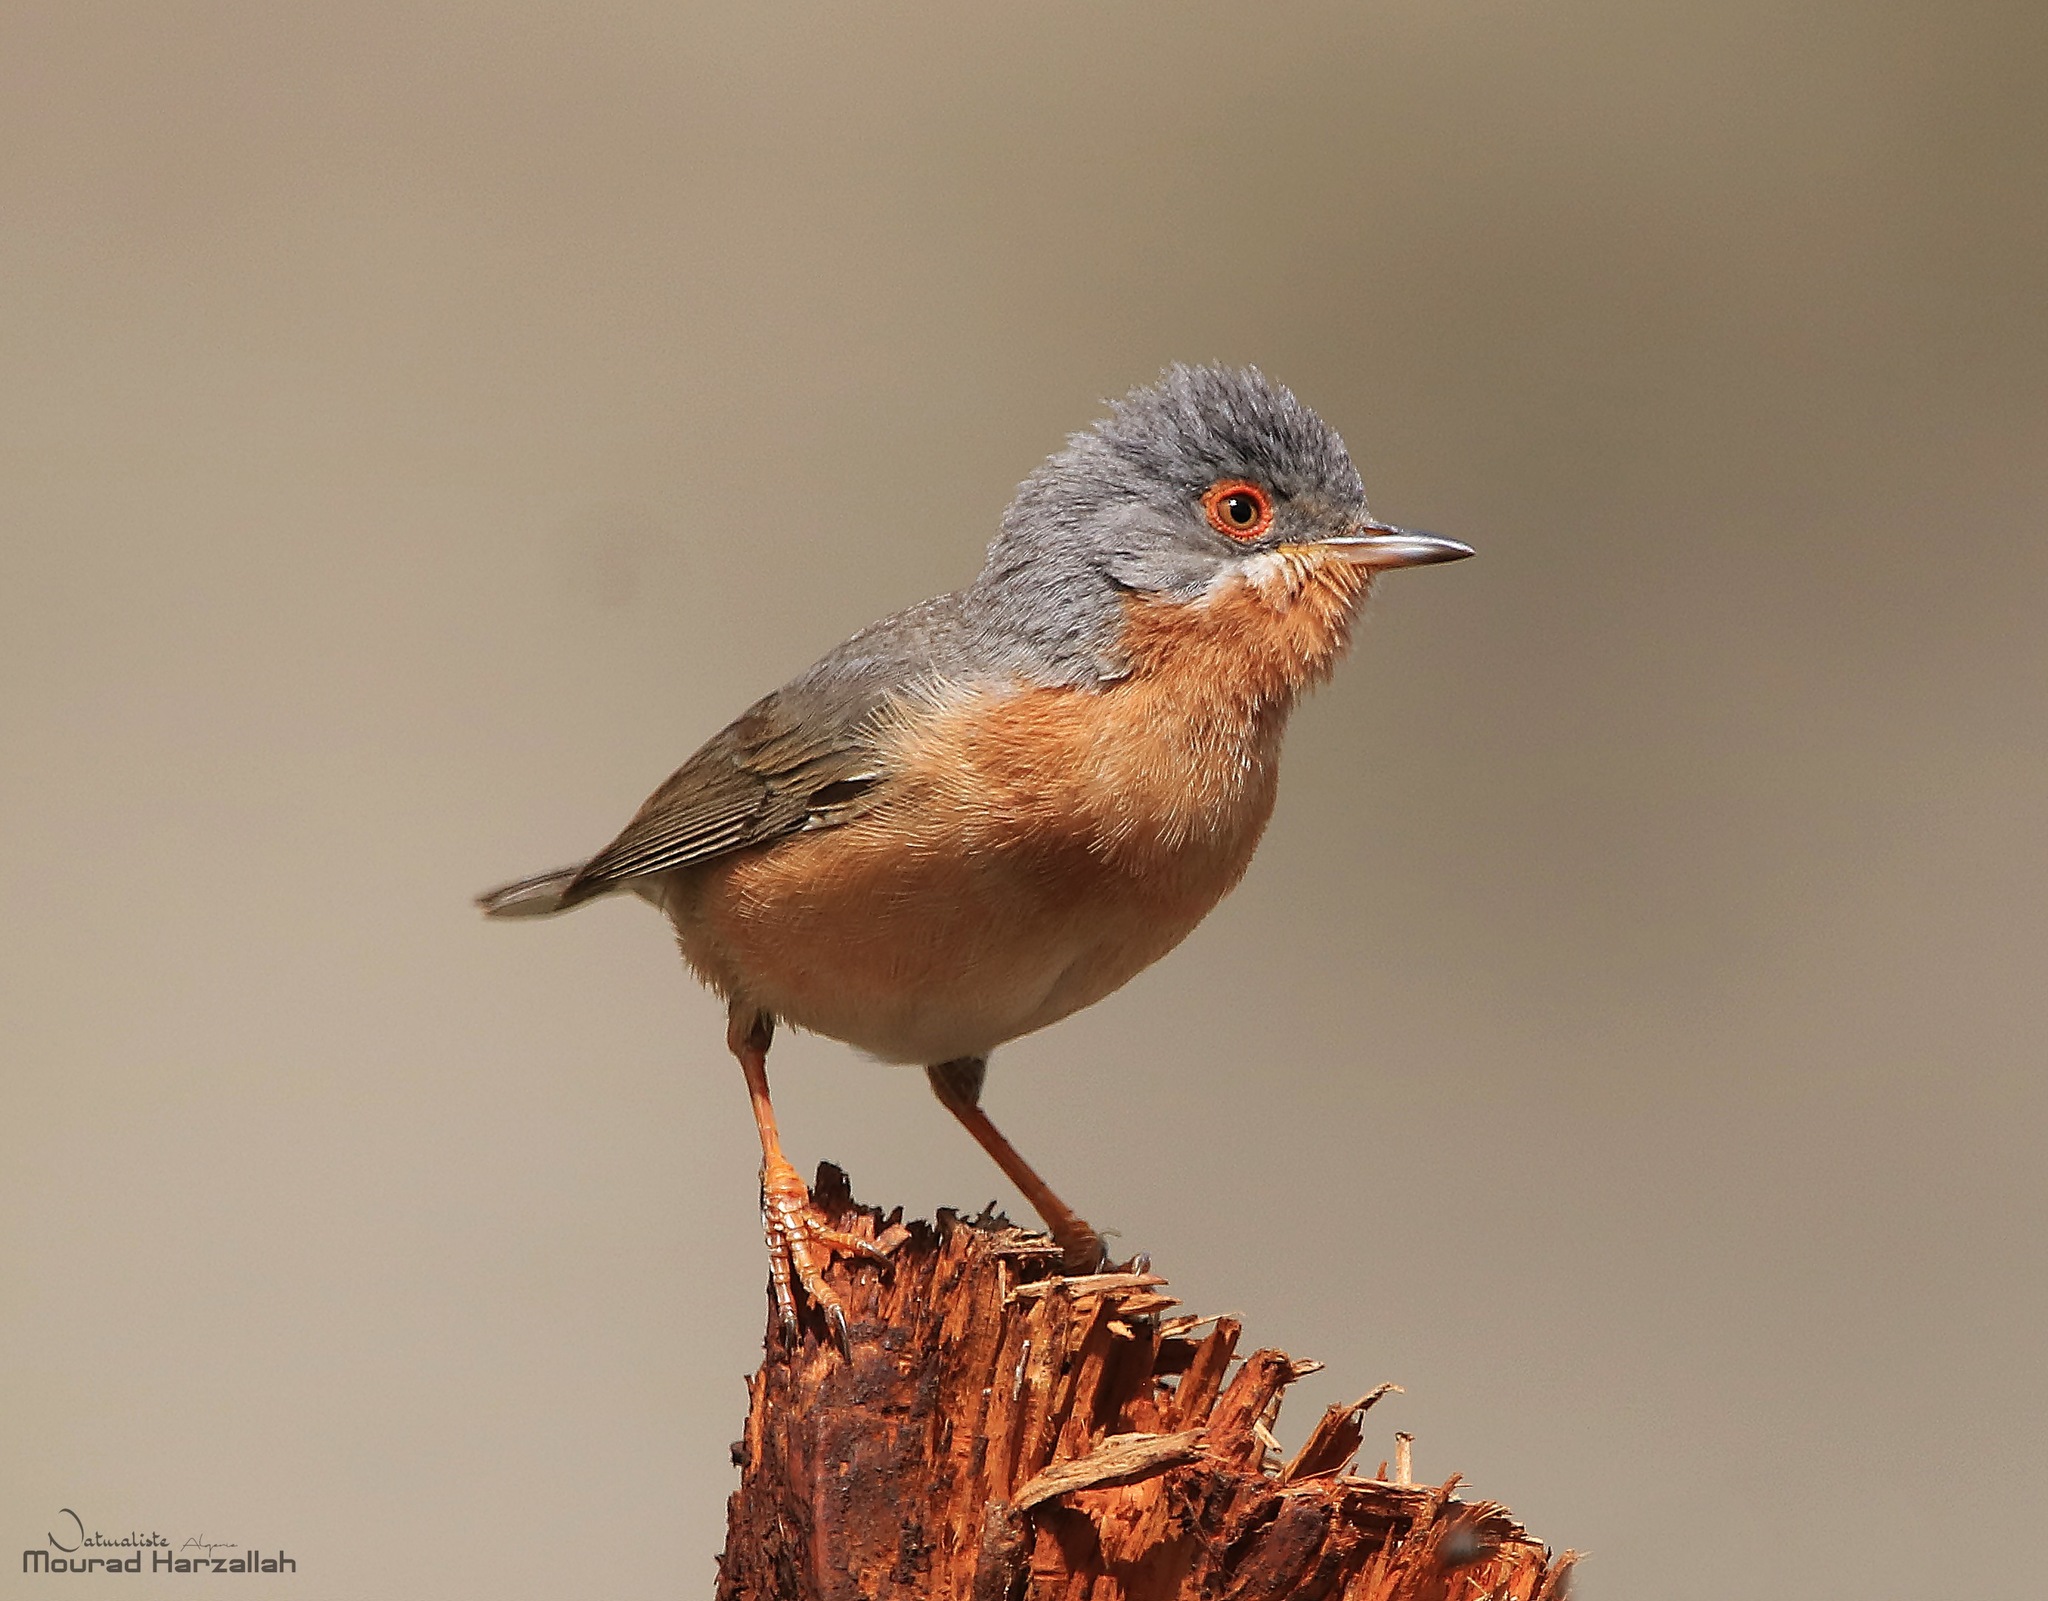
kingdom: Animalia
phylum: Chordata
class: Aves
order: Passeriformes
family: Sylviidae
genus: Curruca
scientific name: Curruca iberiae
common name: Western subalpine warbler
